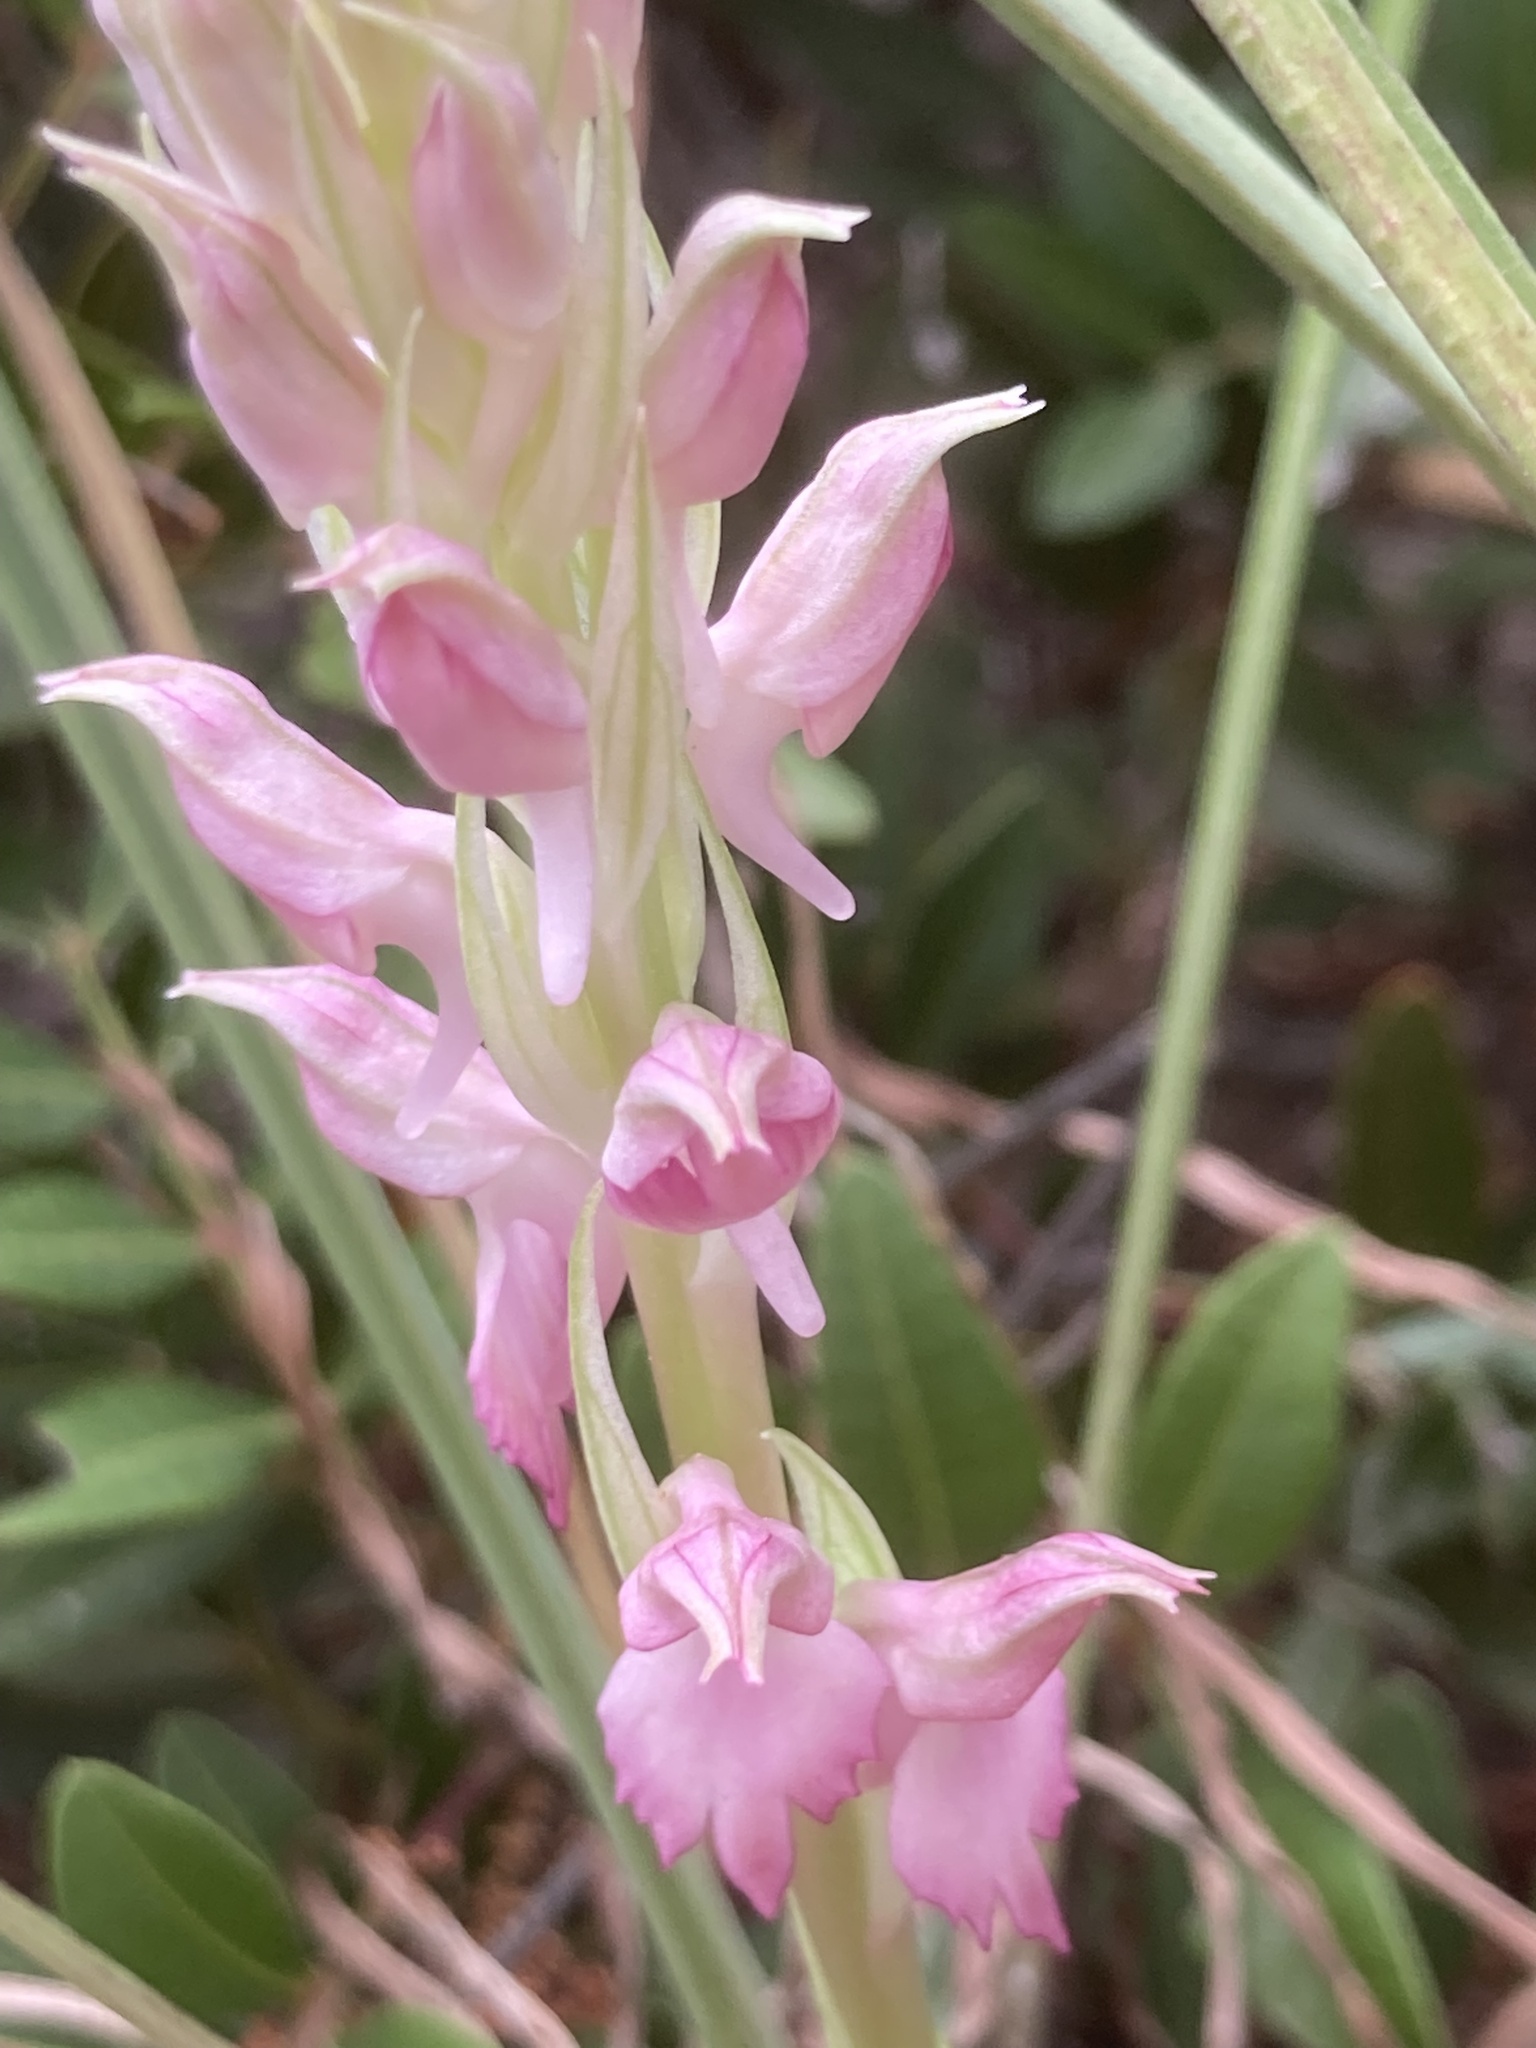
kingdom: Plantae
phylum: Tracheophyta
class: Liliopsida
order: Asparagales
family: Orchidaceae
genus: Anacamptis
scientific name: Anacamptis sancta
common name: Holy orchid
